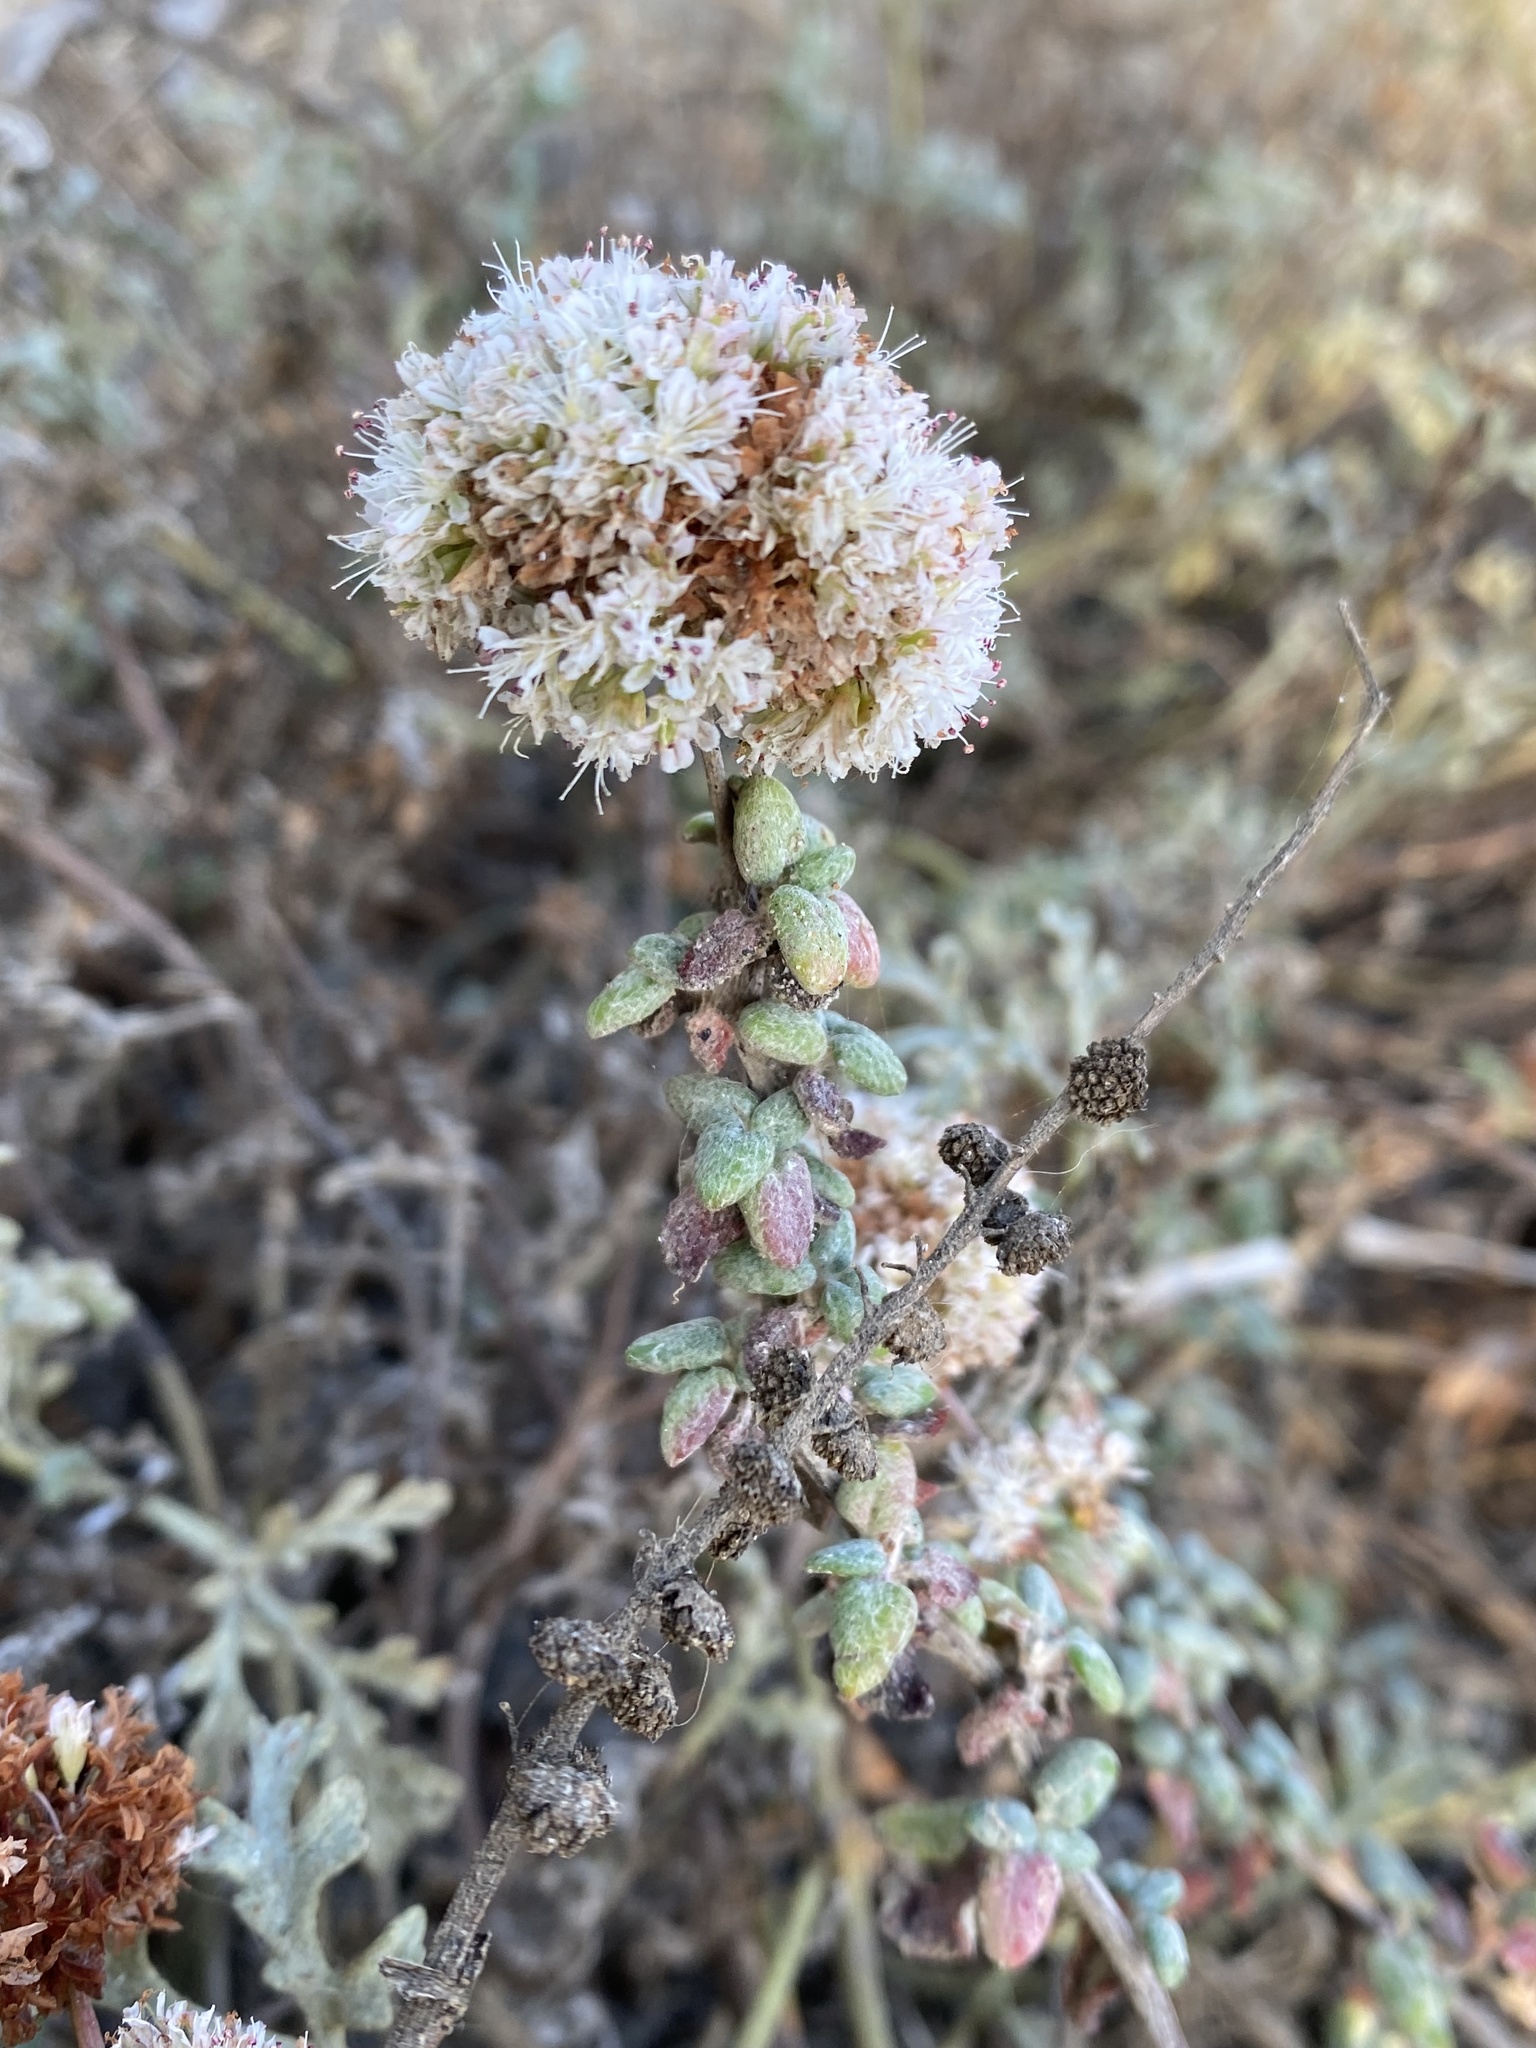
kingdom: Plantae
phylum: Tracheophyta
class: Magnoliopsida
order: Caryophyllales
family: Polygonaceae
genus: Eriogonum
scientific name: Eriogonum parvifolium
